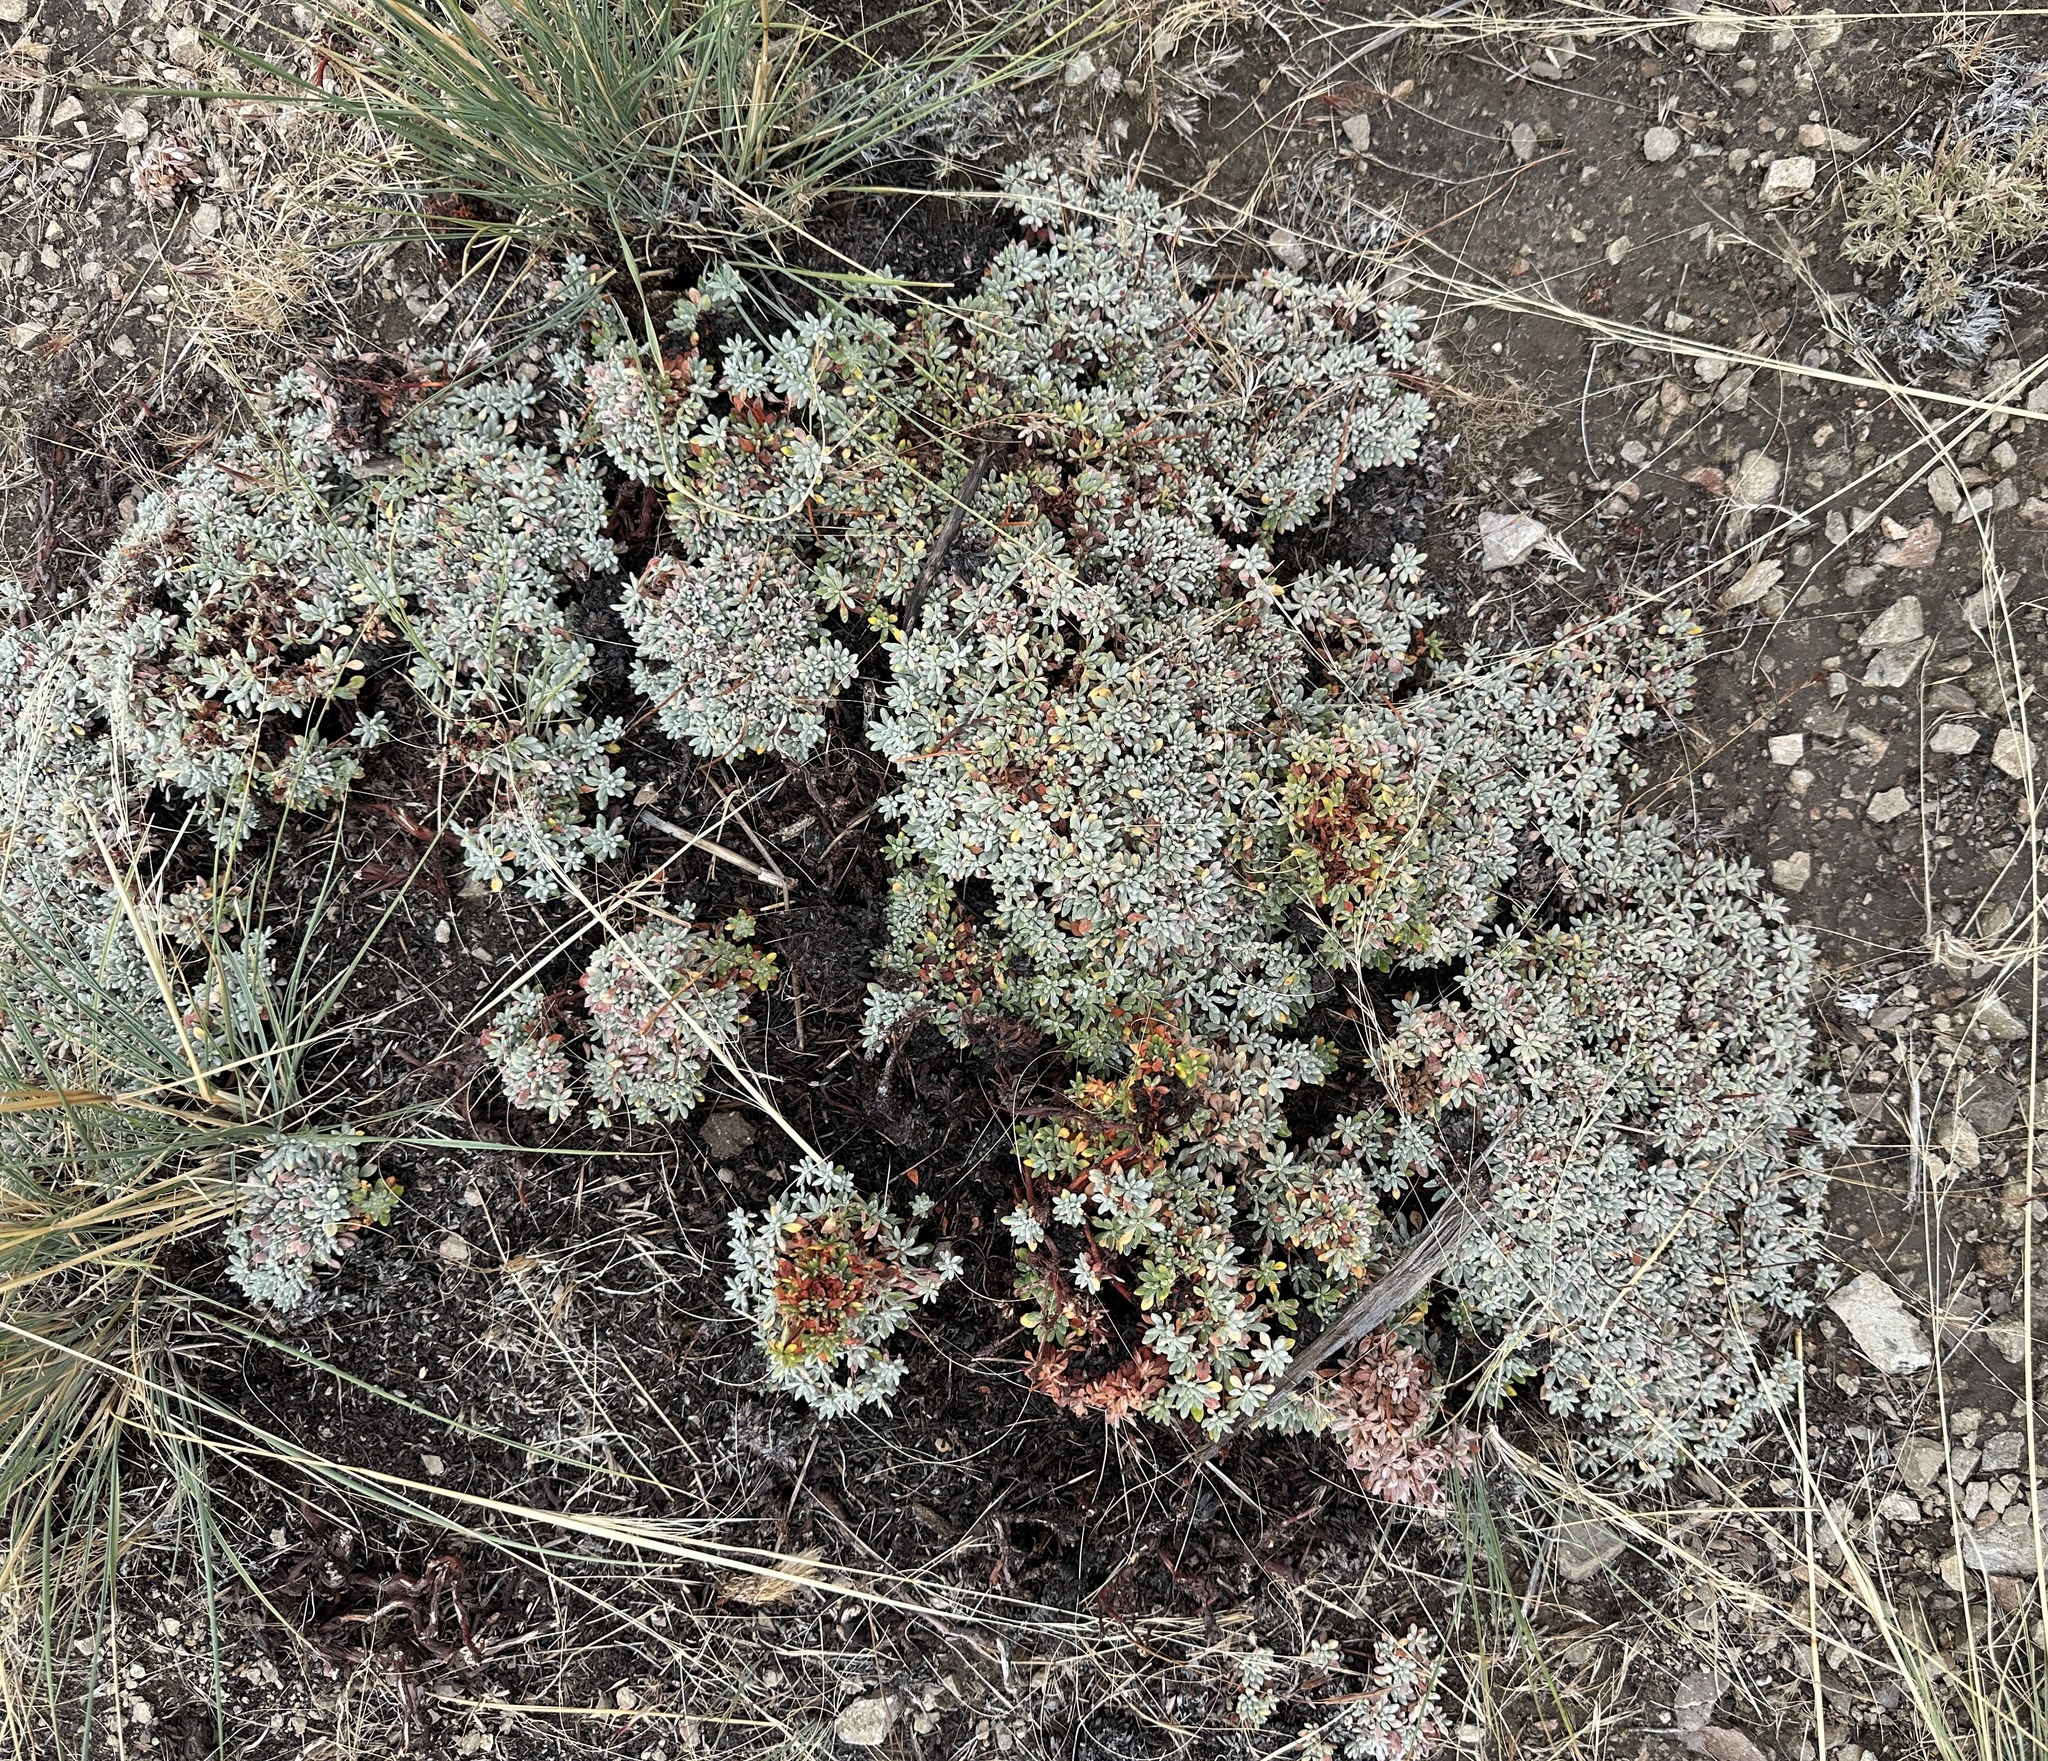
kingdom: Plantae
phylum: Tracheophyta
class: Magnoliopsida
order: Caryophyllales
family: Polygonaceae
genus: Eriogonum
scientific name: Eriogonum caespitosum
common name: Matted wild buckwheat
